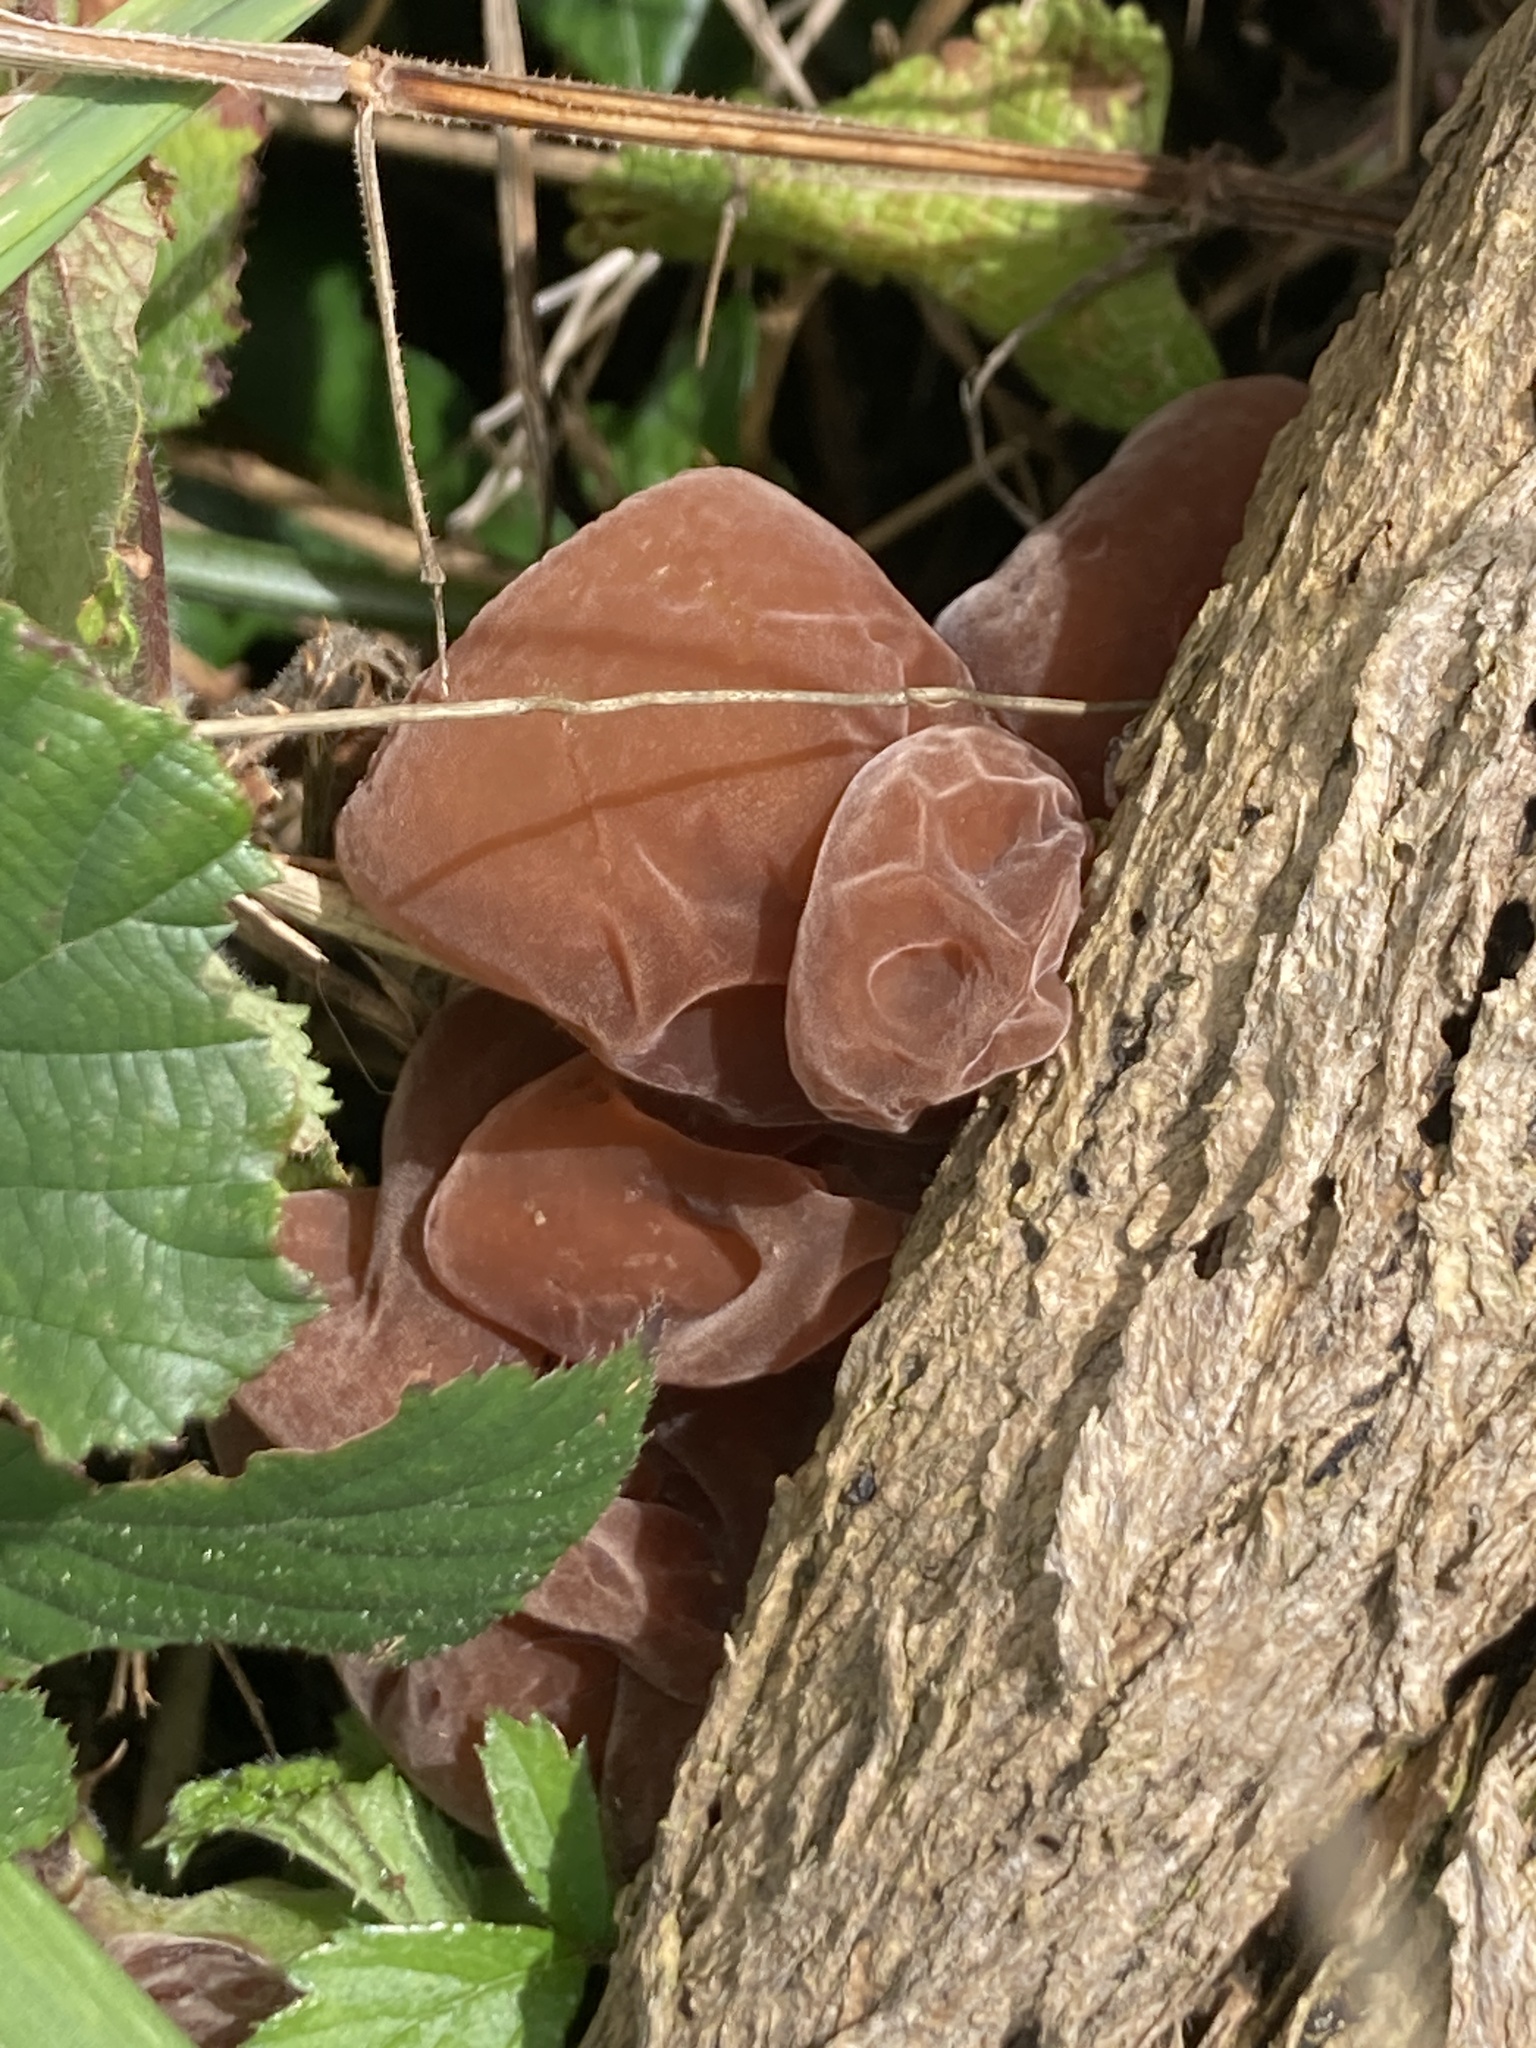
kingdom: Fungi
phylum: Basidiomycota
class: Agaricomycetes
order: Auriculariales
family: Auriculariaceae
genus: Auricularia
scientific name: Auricularia auricula-judae
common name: Jelly ear
